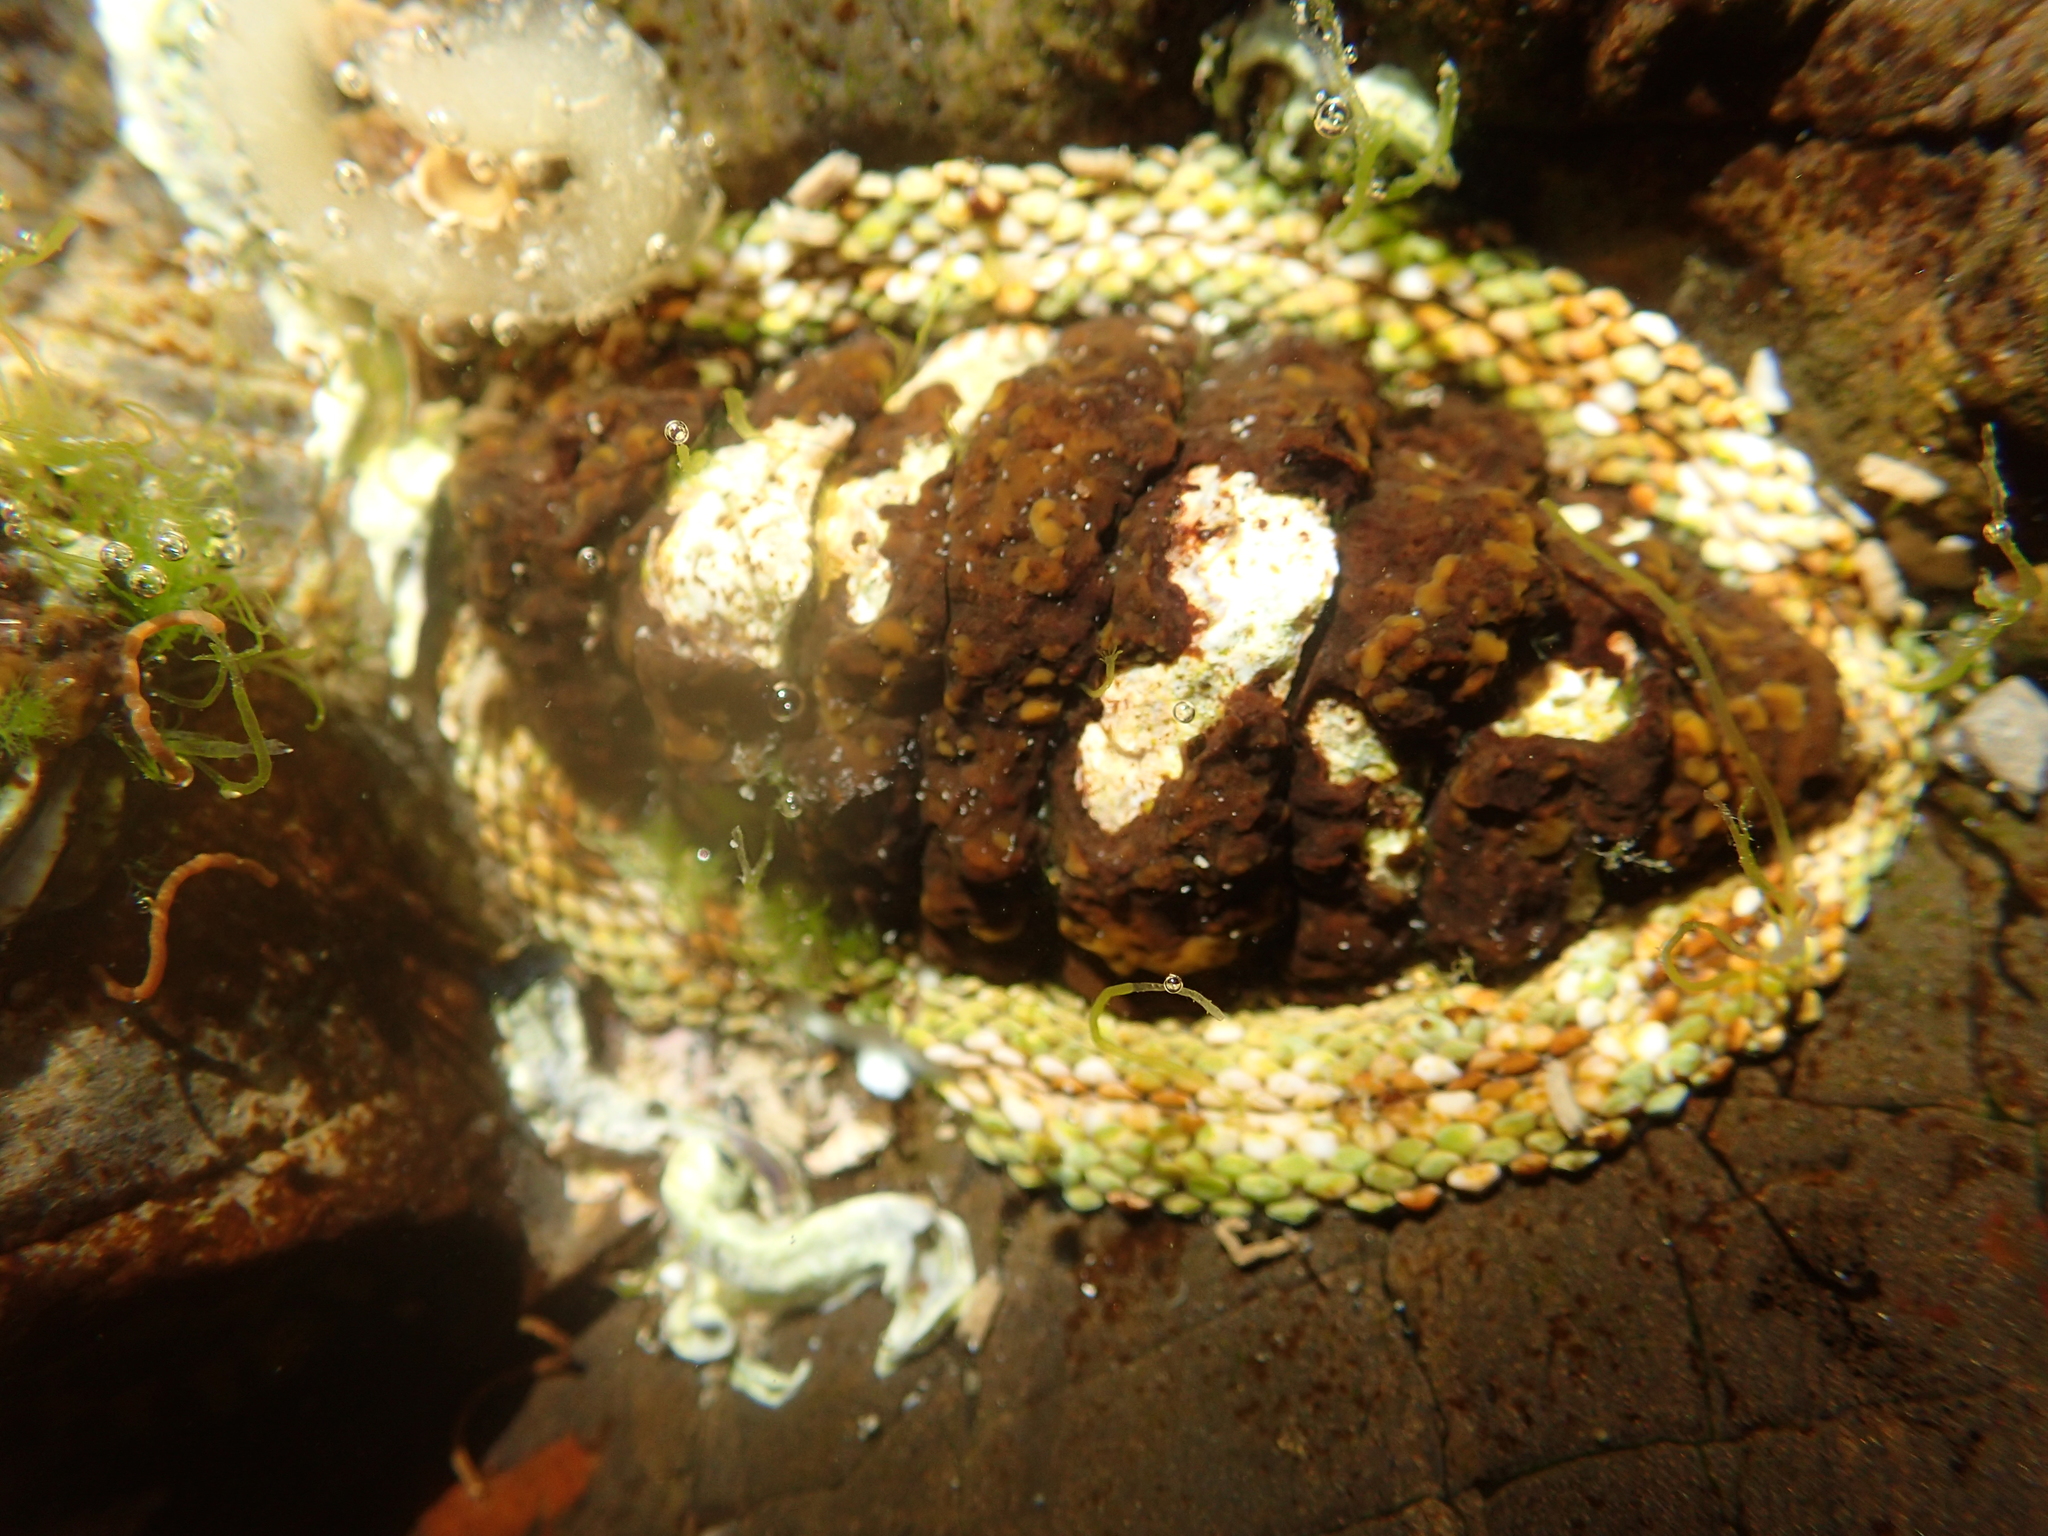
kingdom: Animalia
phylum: Mollusca
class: Polyplacophora
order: Chitonida
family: Chitonidae
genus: Sypharochiton
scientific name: Sypharochiton pelliserpentis
